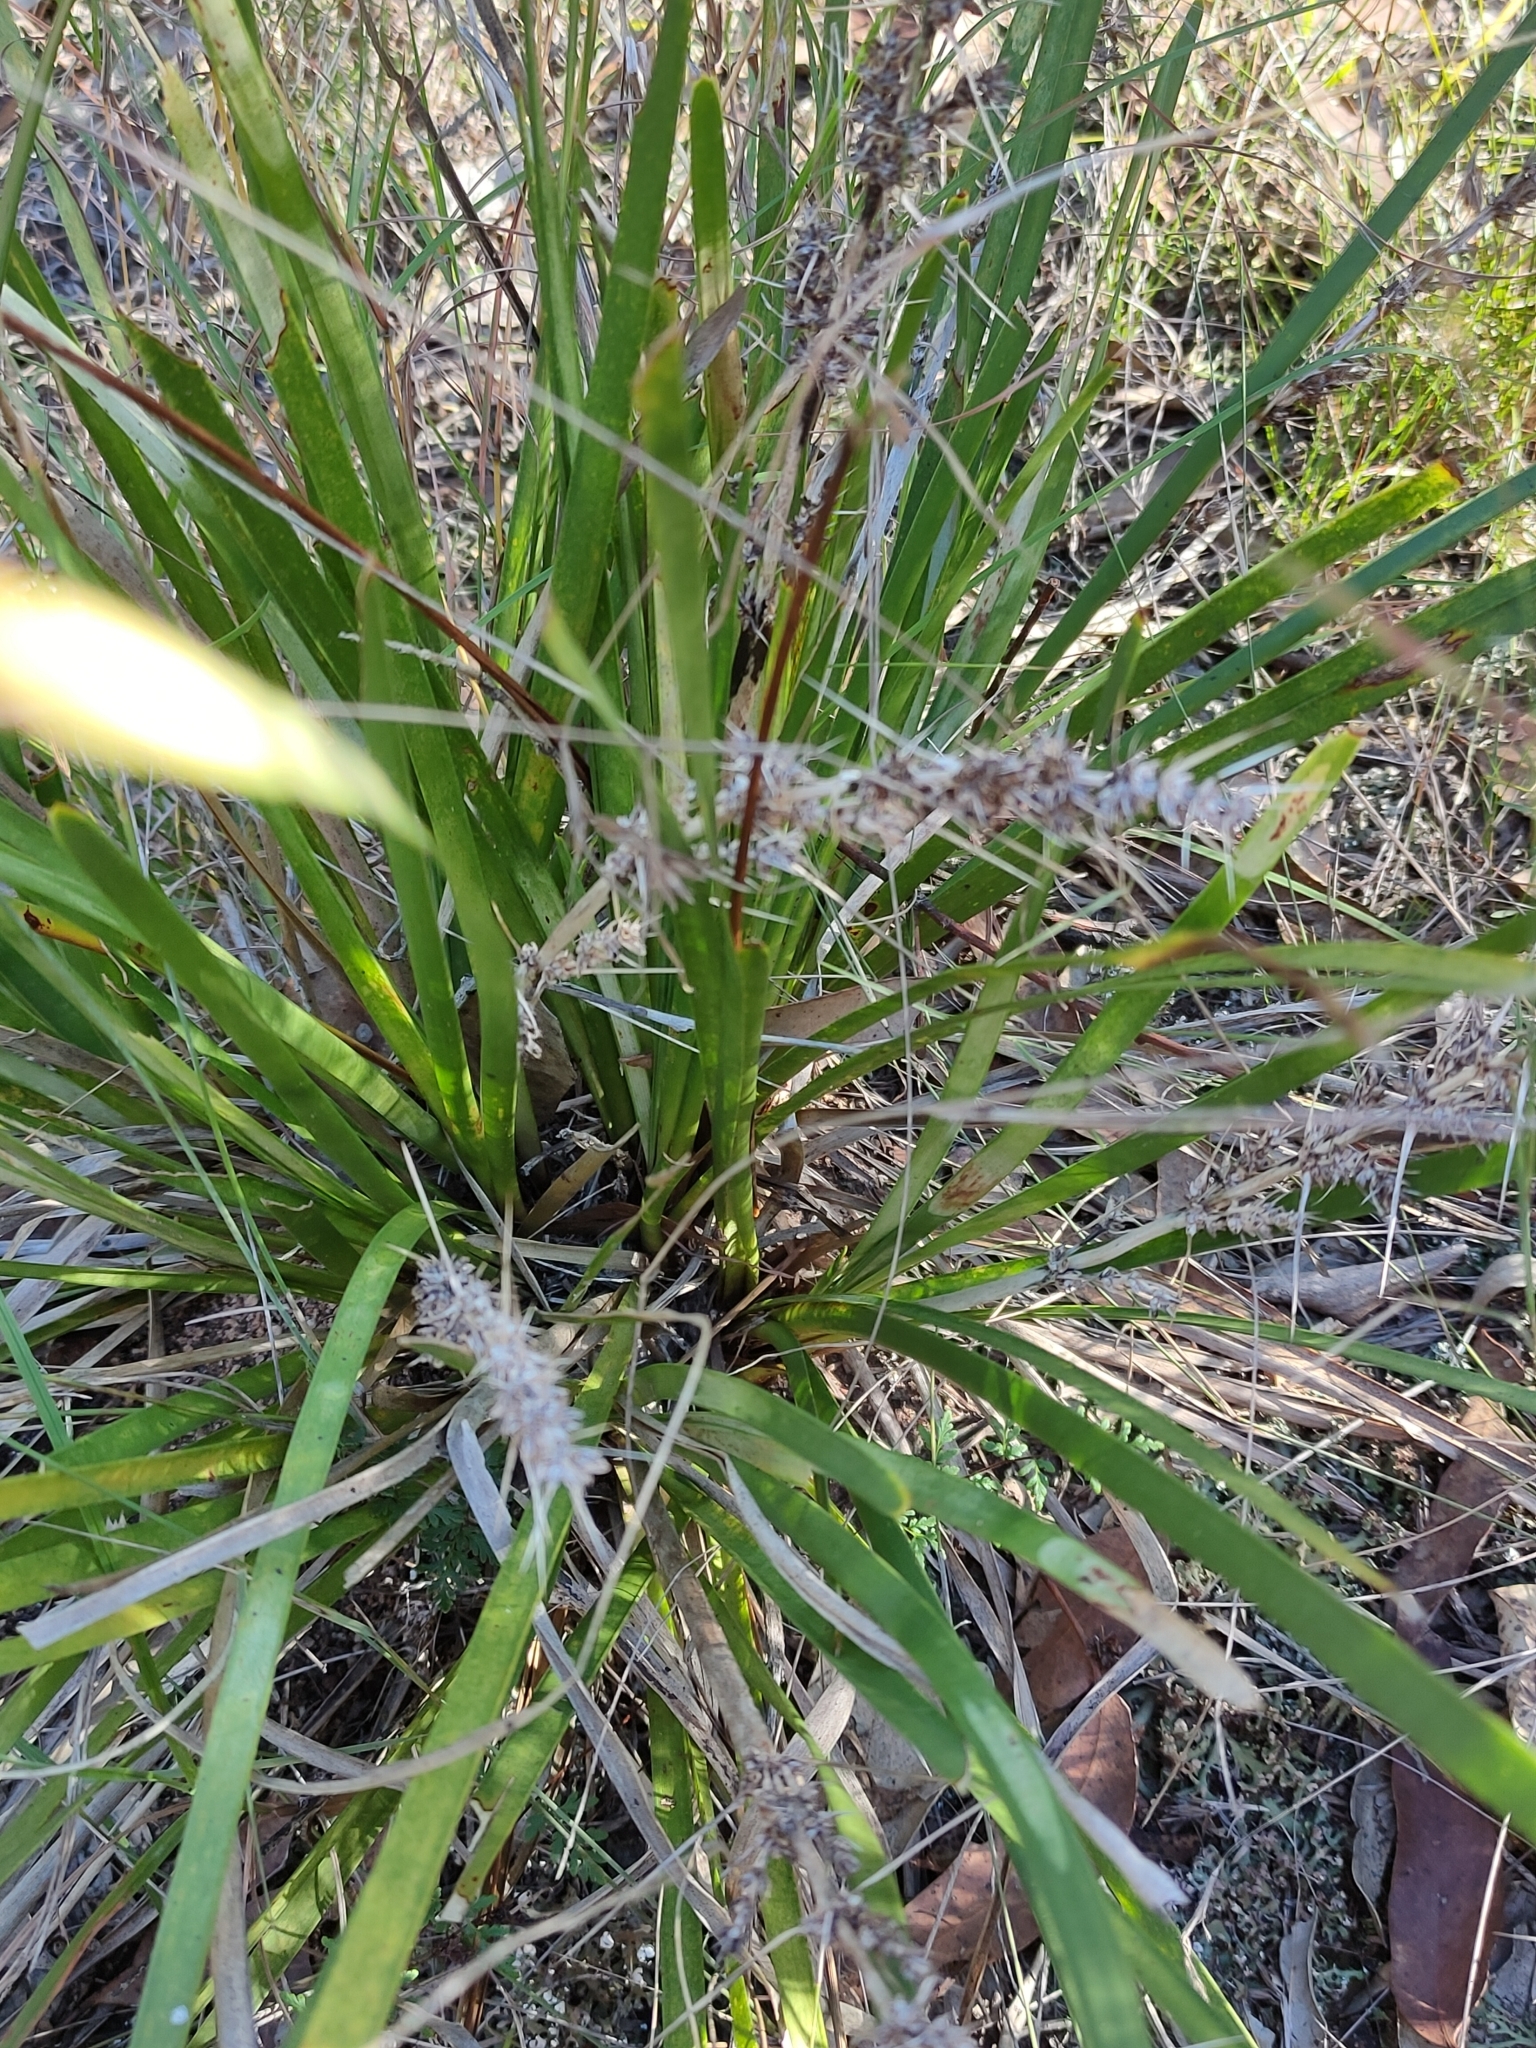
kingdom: Plantae
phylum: Tracheophyta
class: Liliopsida
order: Asparagales
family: Asparagaceae
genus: Lomandra
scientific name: Lomandra longifolia
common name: Longleaf mat-rush
